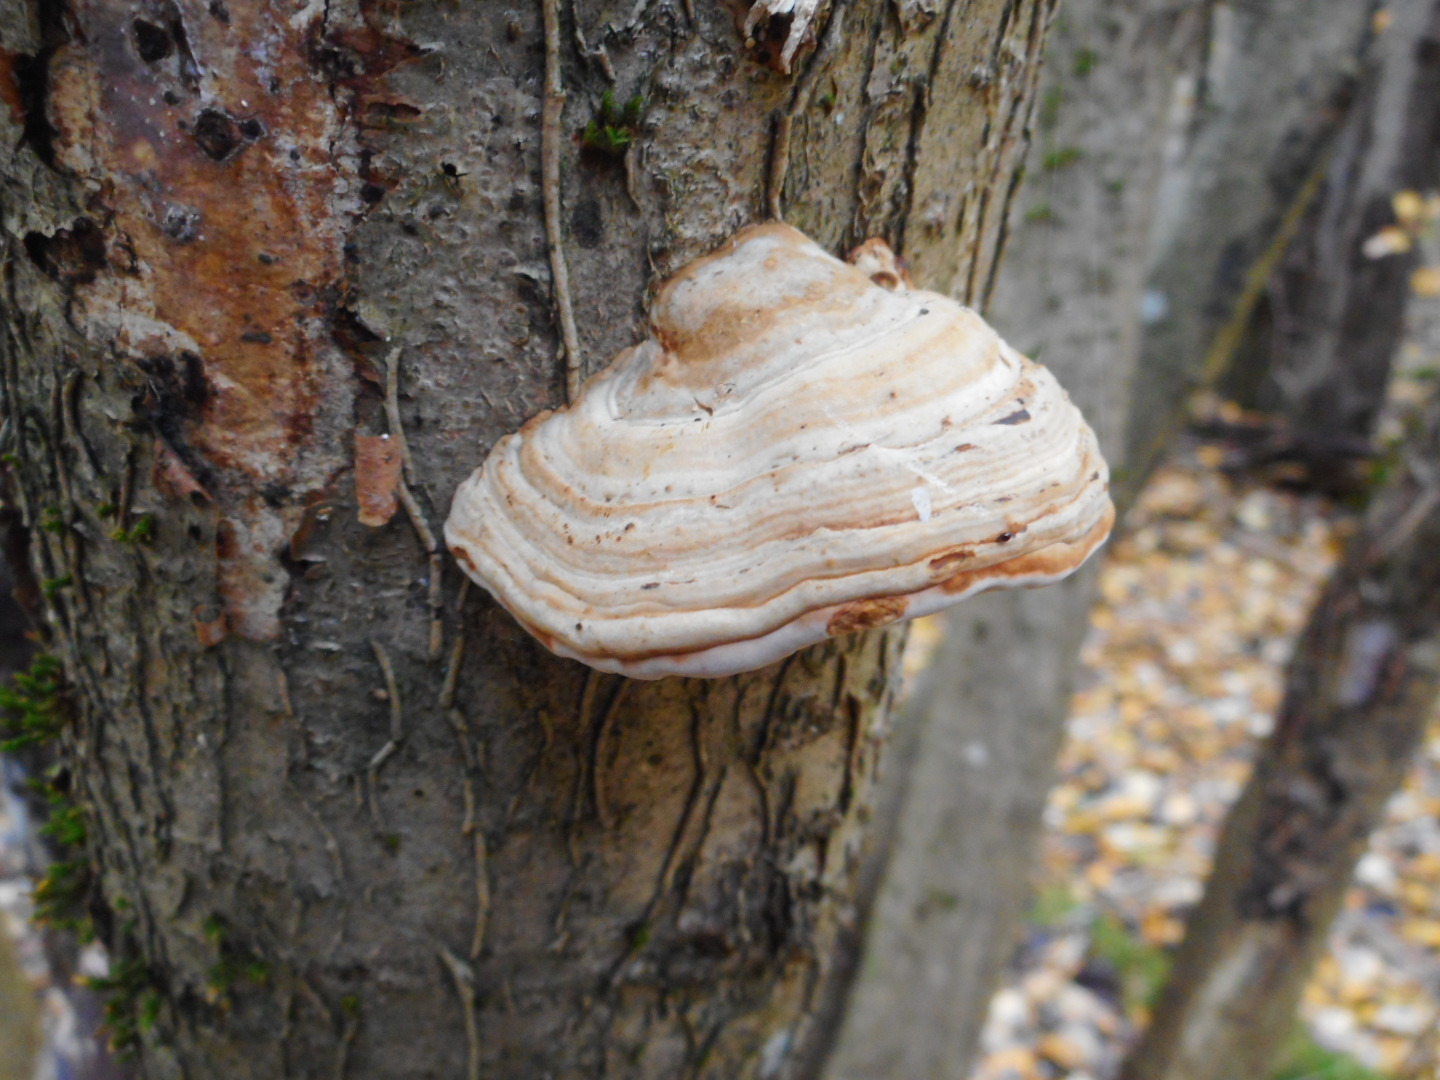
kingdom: Fungi
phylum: Basidiomycota
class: Agaricomycetes
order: Polyporales
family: Polyporaceae
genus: Fomes
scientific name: Fomes fomentarius
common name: Hoof fungus
